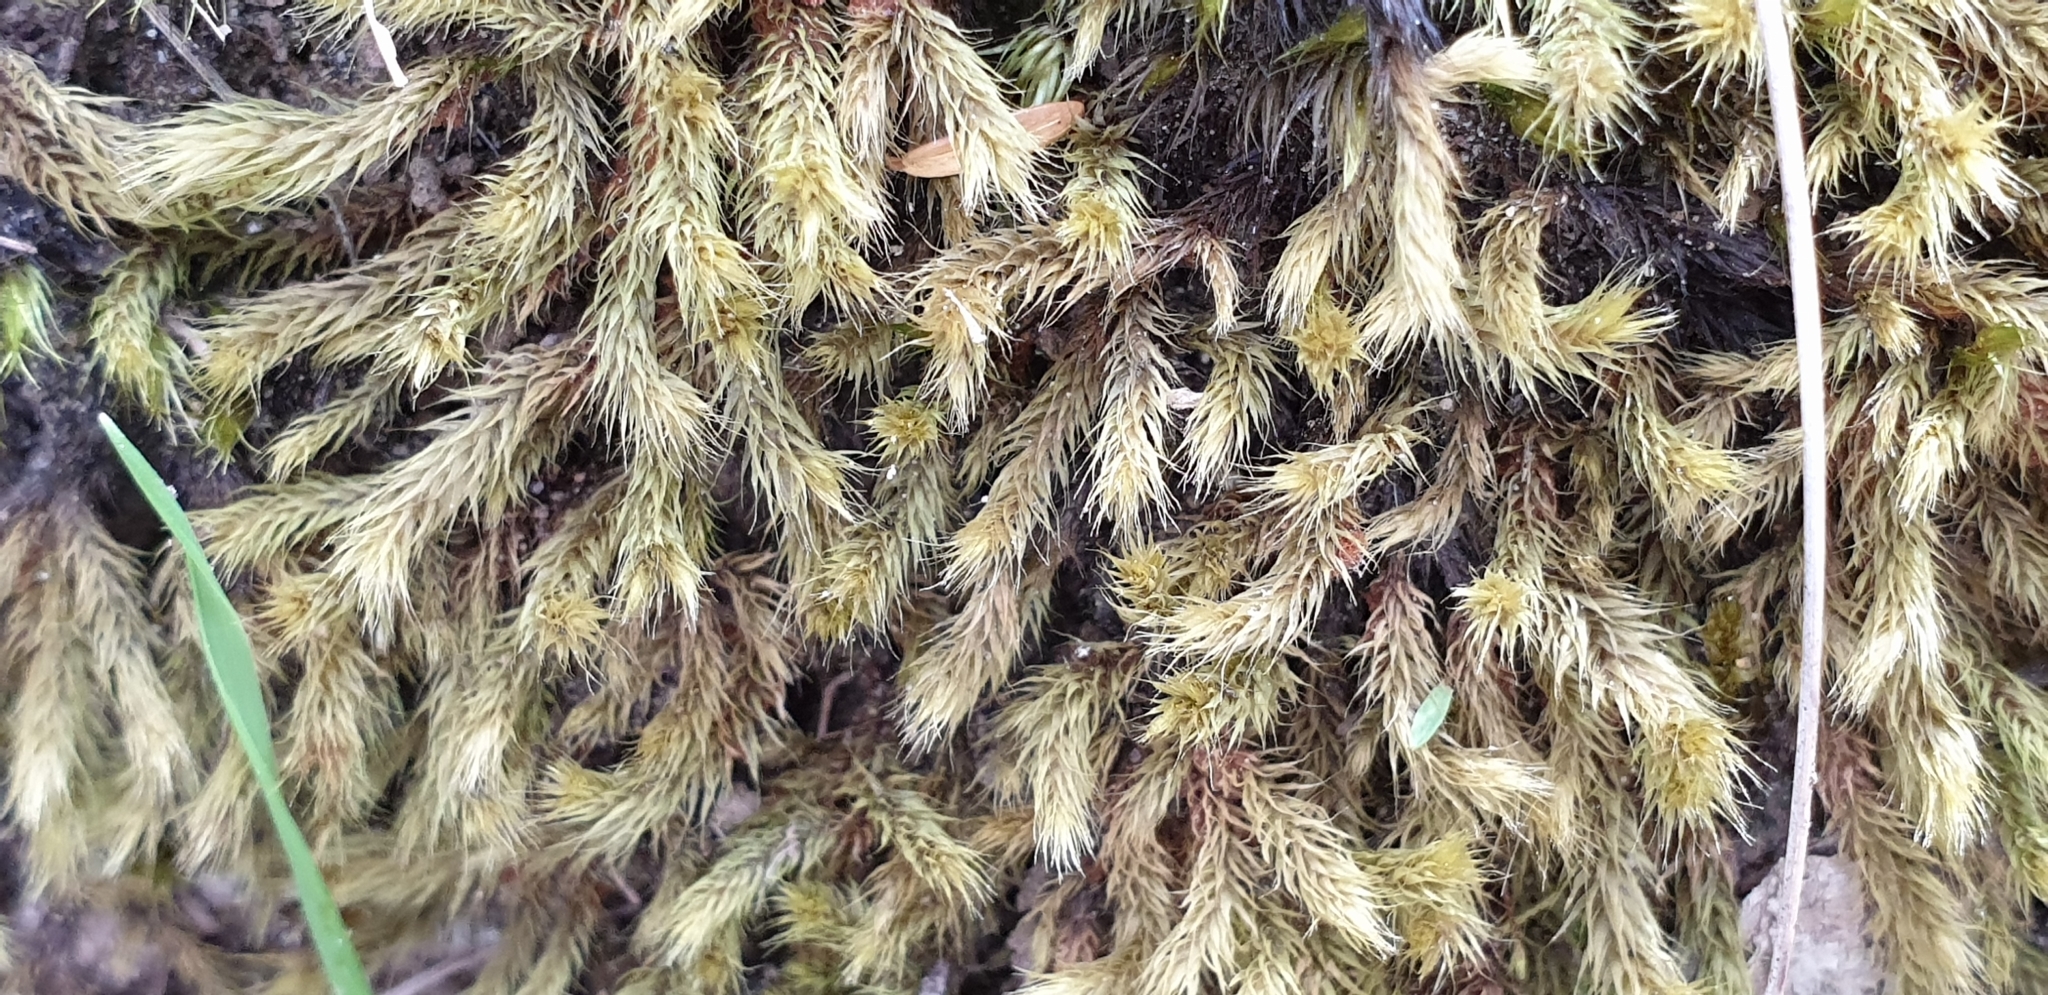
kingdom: Plantae
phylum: Bryophyta
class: Bryopsida
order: Bartramiales
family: Bartramiaceae
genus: Breutelia
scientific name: Breutelia affinis
